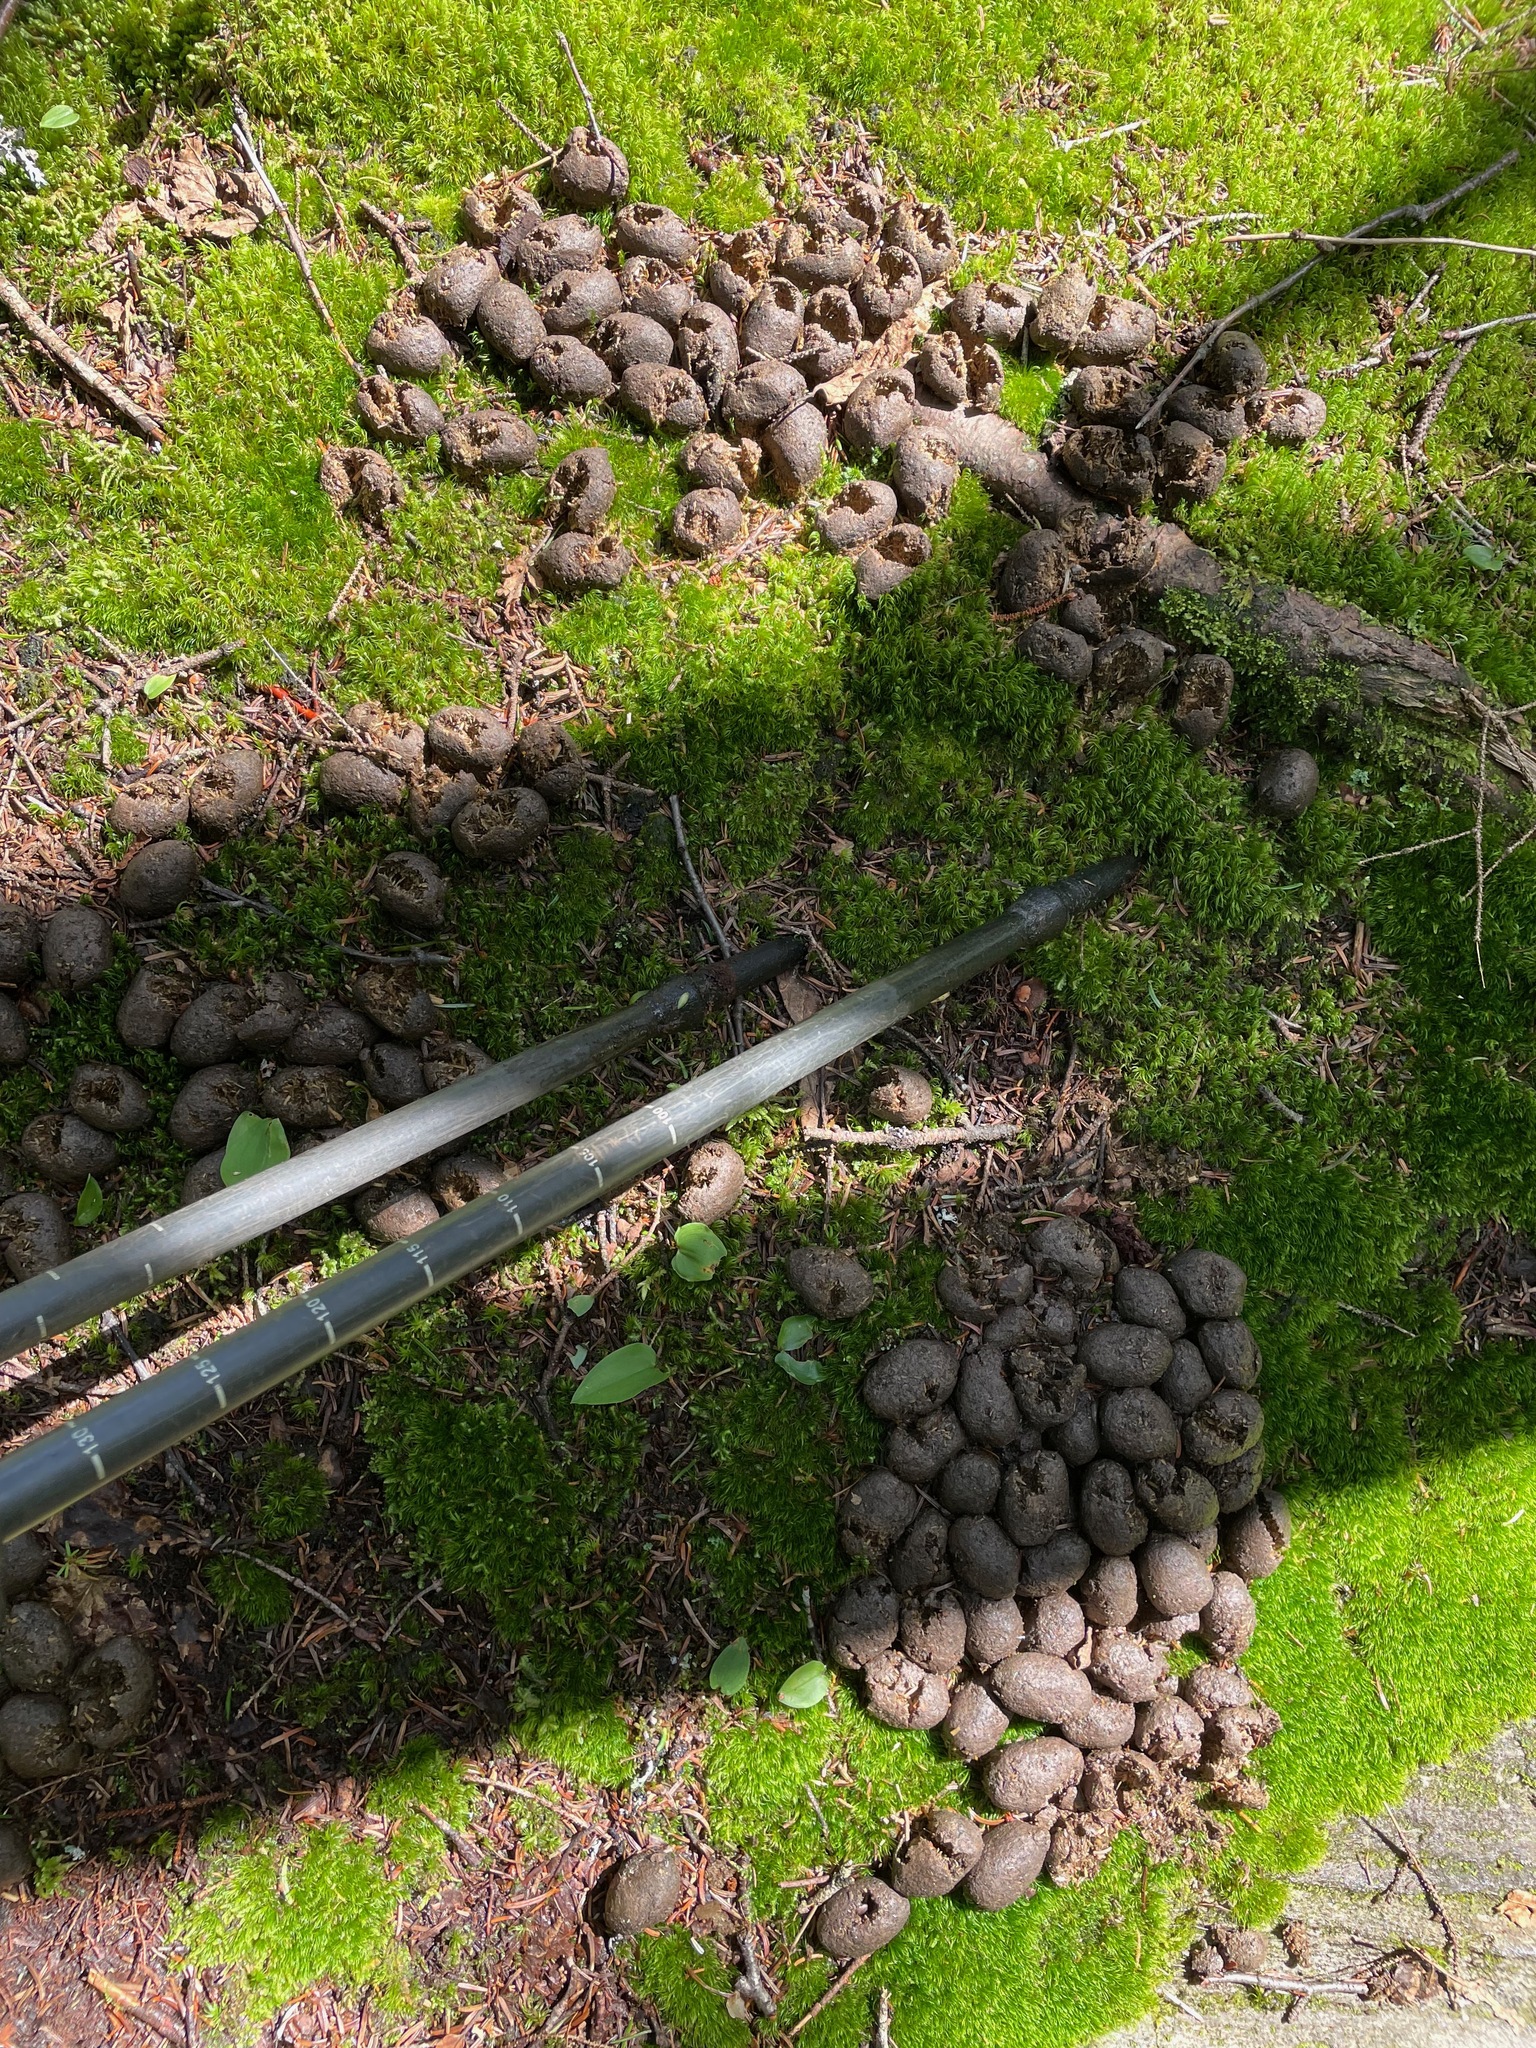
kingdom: Animalia
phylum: Chordata
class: Mammalia
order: Artiodactyla
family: Cervidae
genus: Alces
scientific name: Alces alces
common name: Moose
